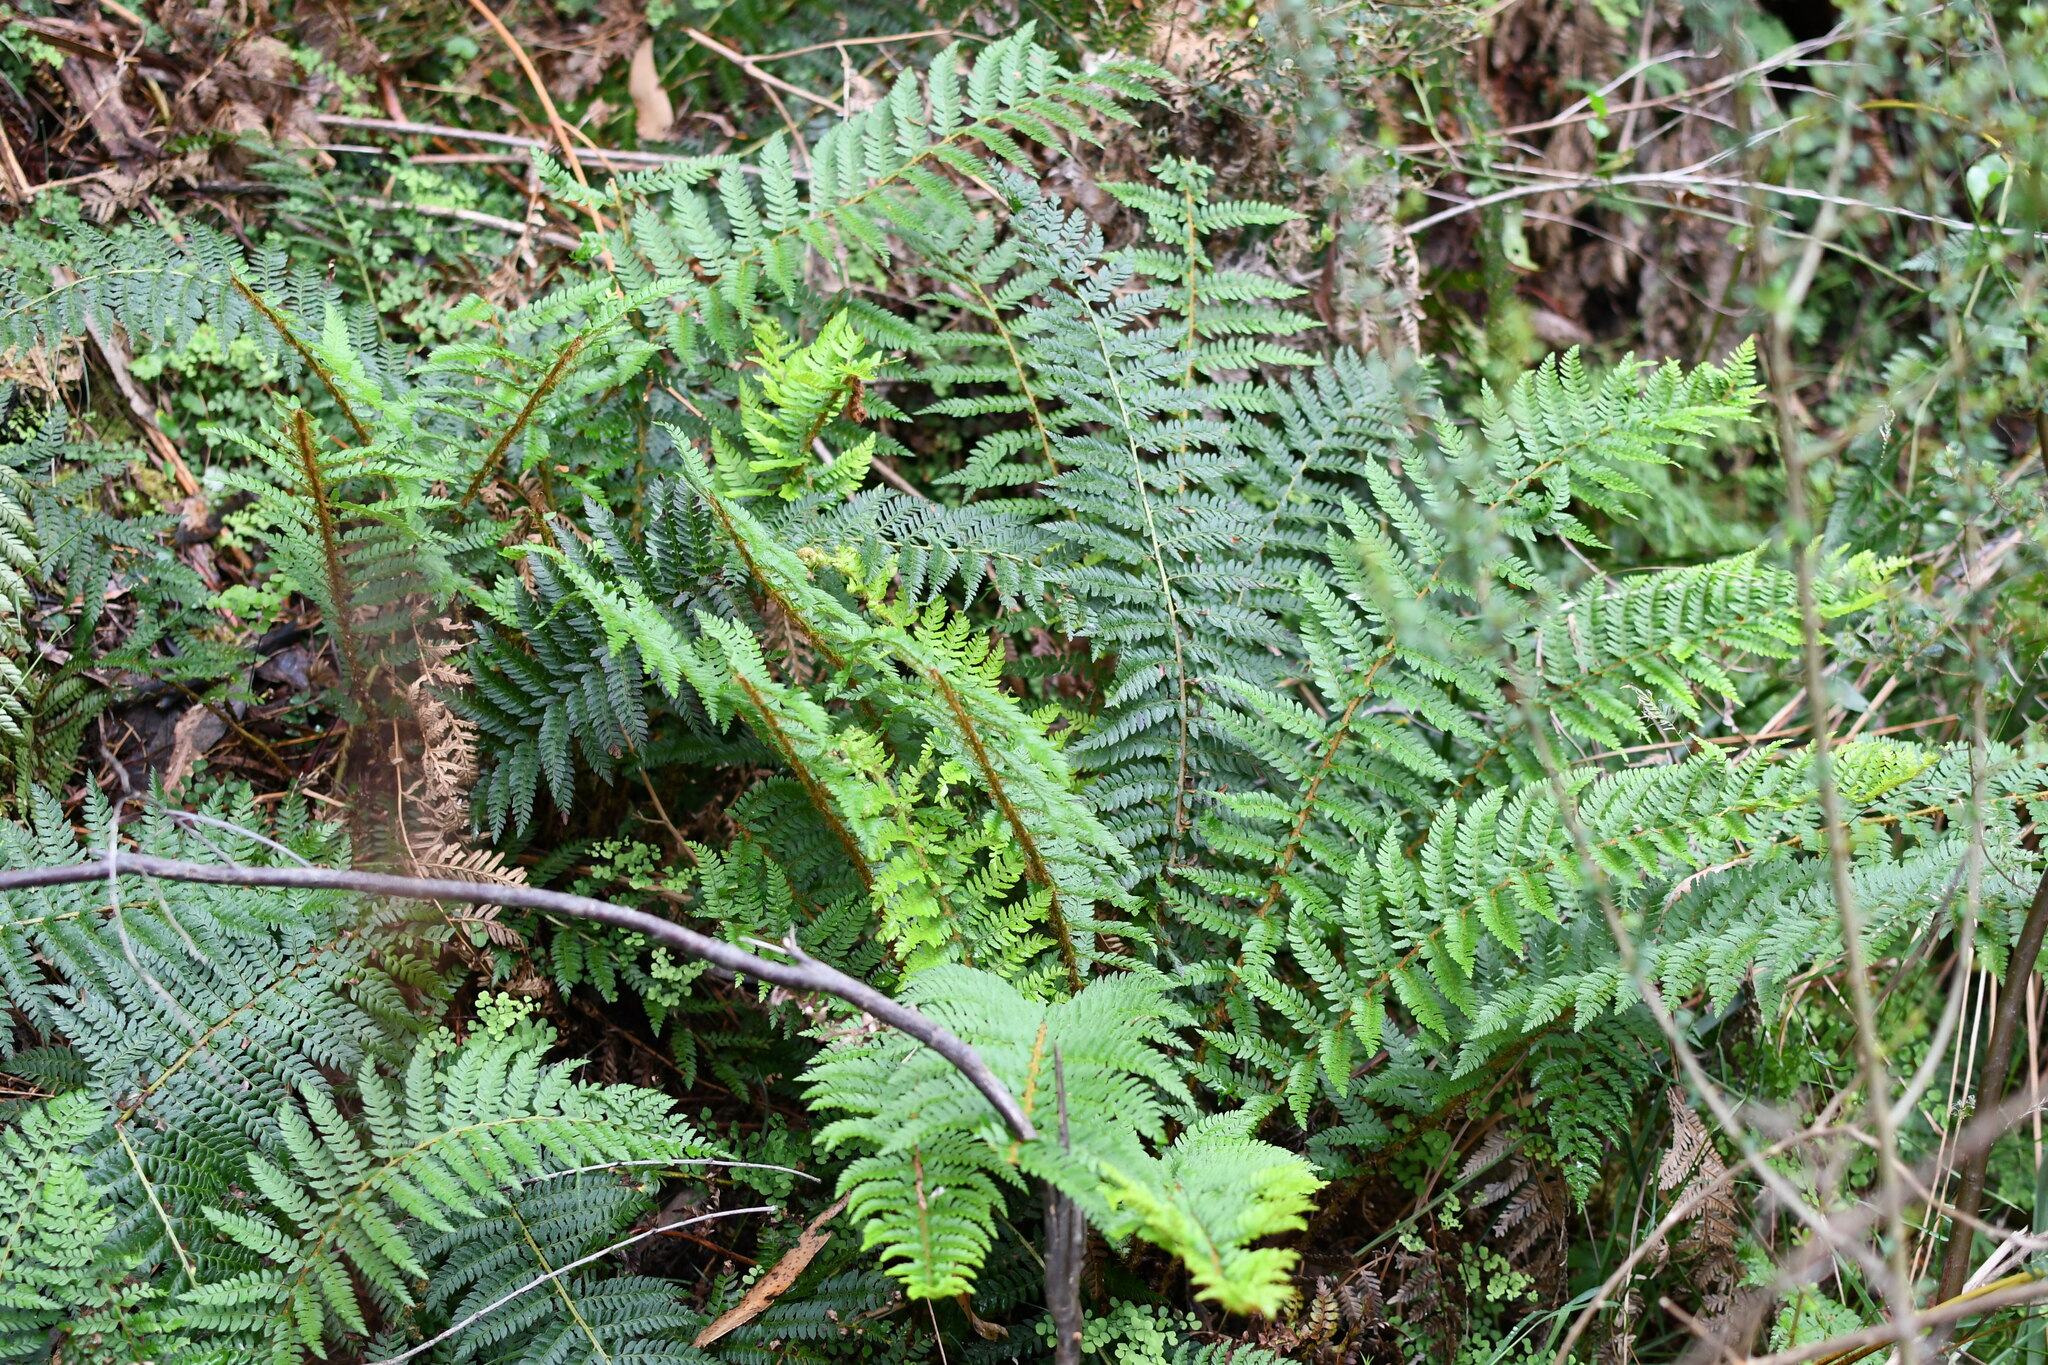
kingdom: Plantae
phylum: Tracheophyta
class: Polypodiopsida
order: Polypodiales
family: Dryopteridaceae
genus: Polystichum
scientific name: Polystichum proliferum
